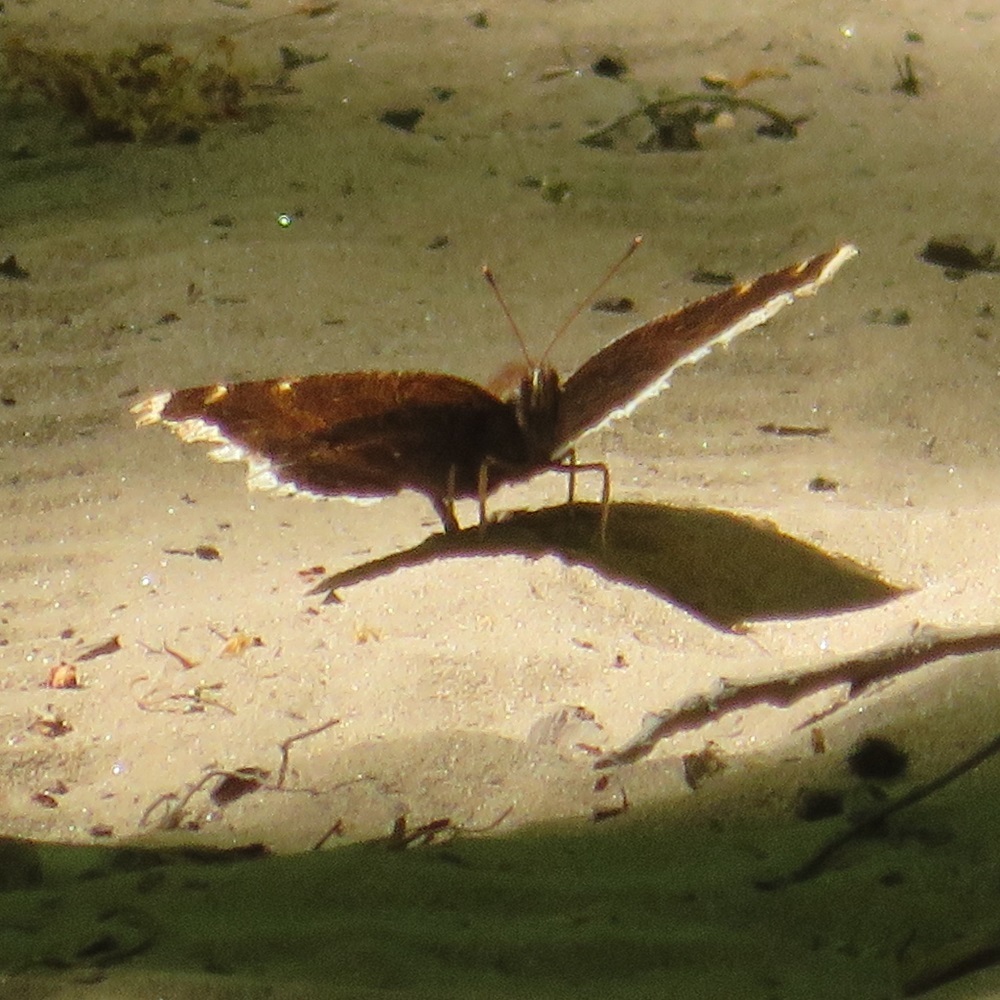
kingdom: Animalia
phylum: Arthropoda
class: Insecta
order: Lepidoptera
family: Nymphalidae
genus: Nymphalis
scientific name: Nymphalis antiopa
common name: Camberwell beauty
